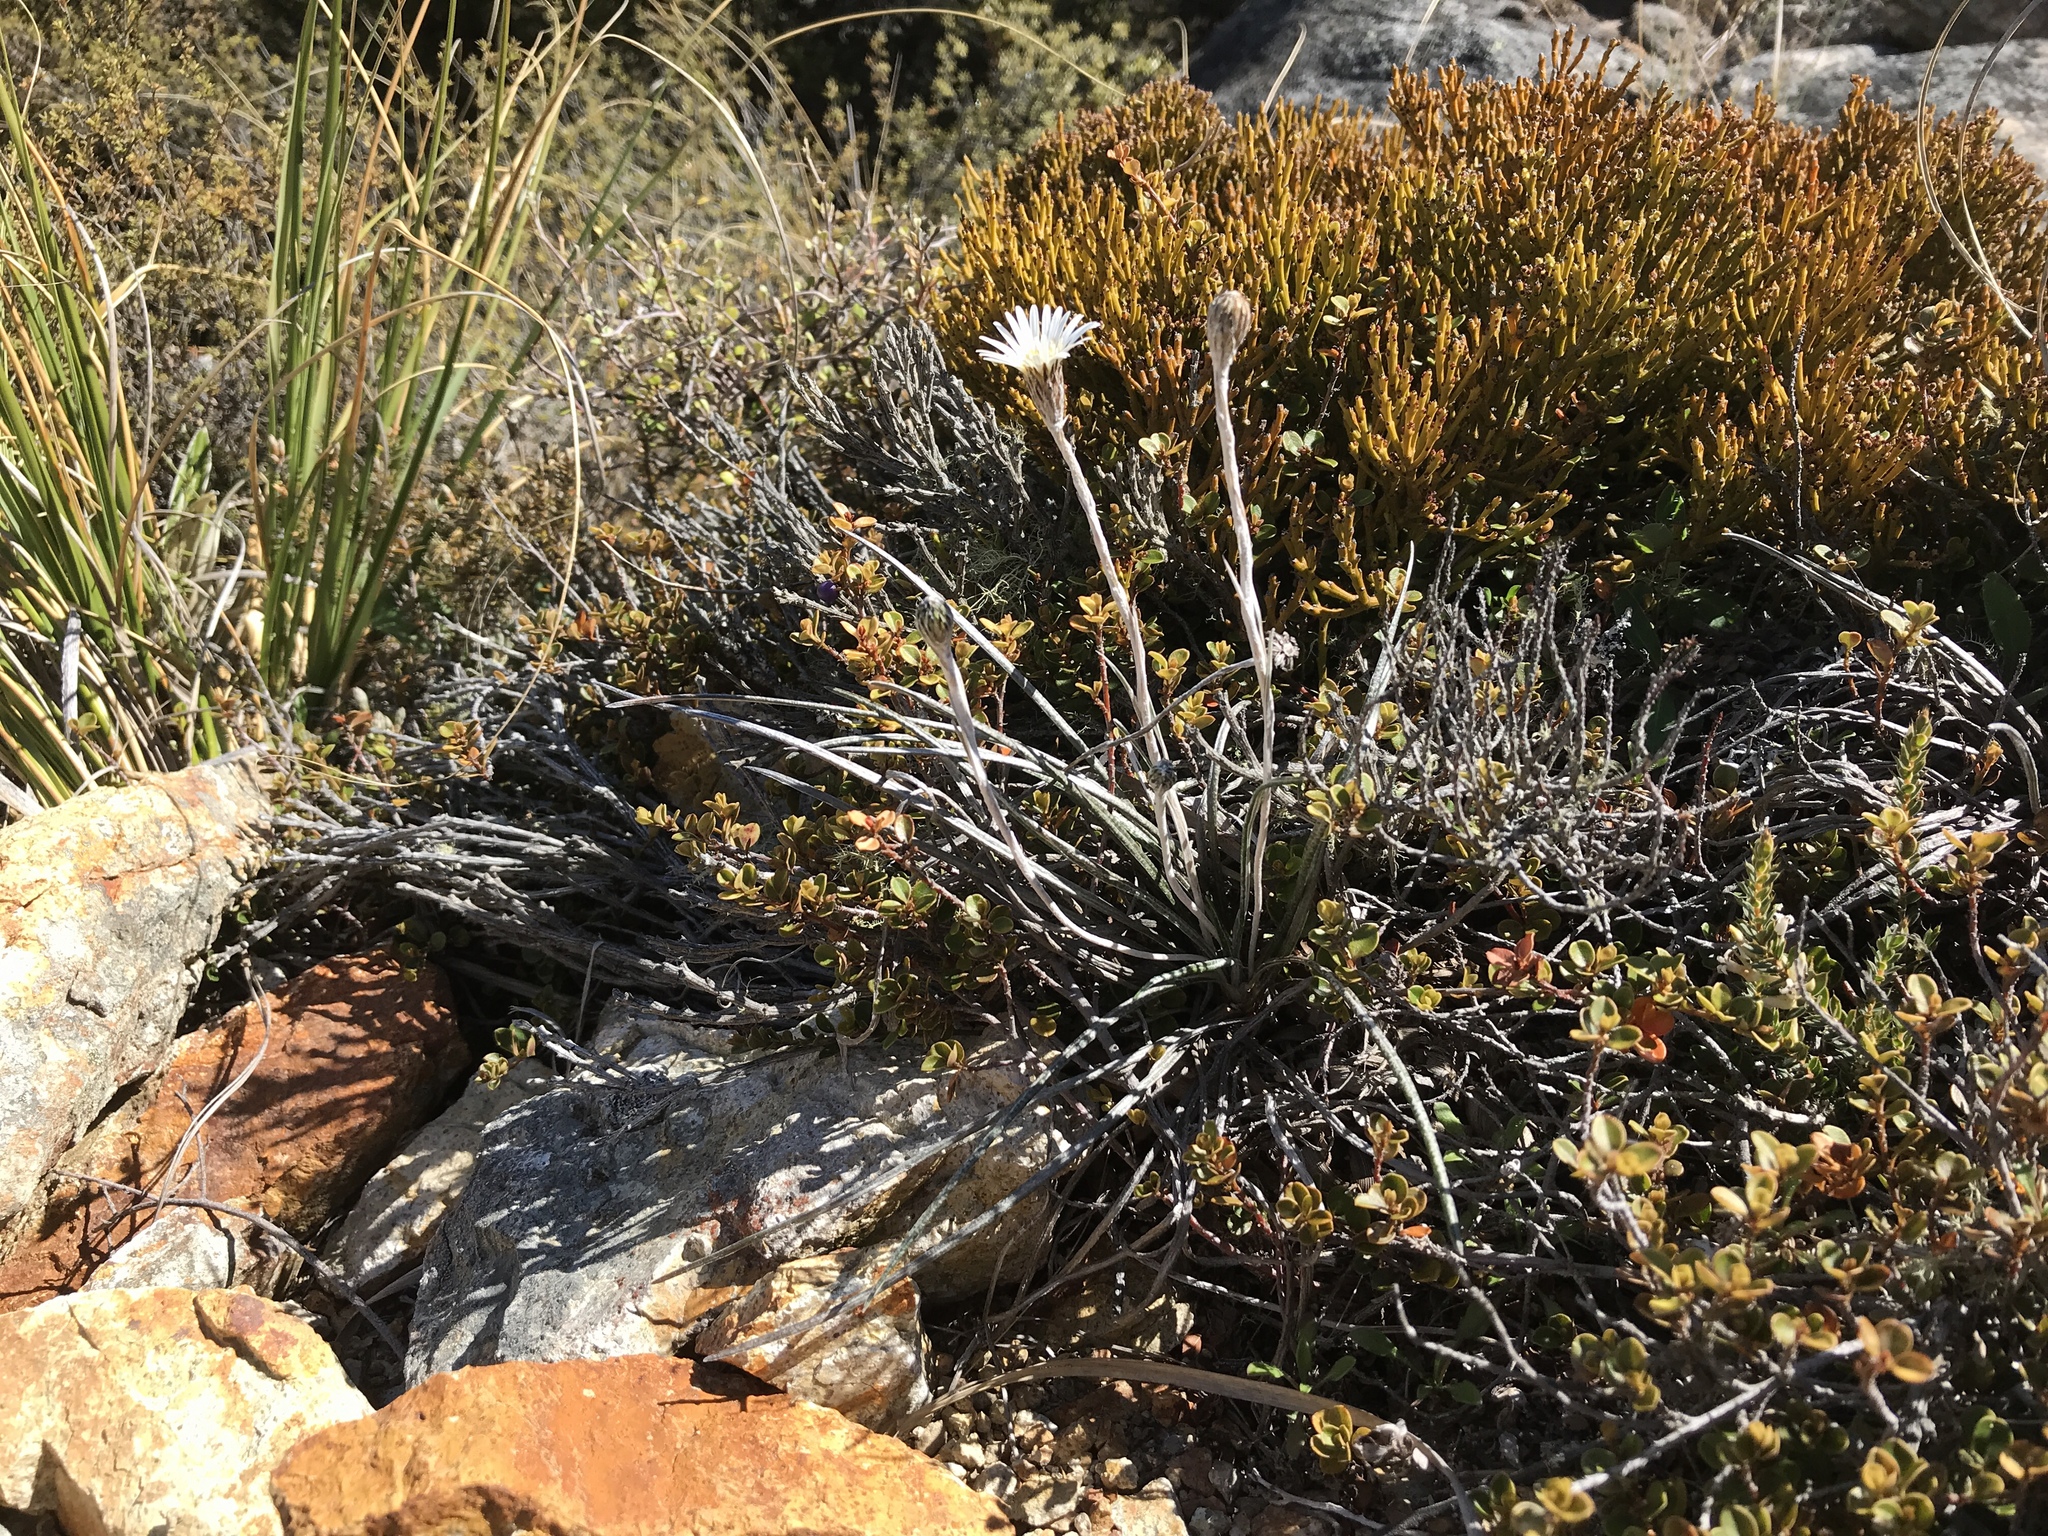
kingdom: Plantae
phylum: Tracheophyta
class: Magnoliopsida
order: Asterales
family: Asteraceae
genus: Celmisia
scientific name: Celmisia gracilenta
